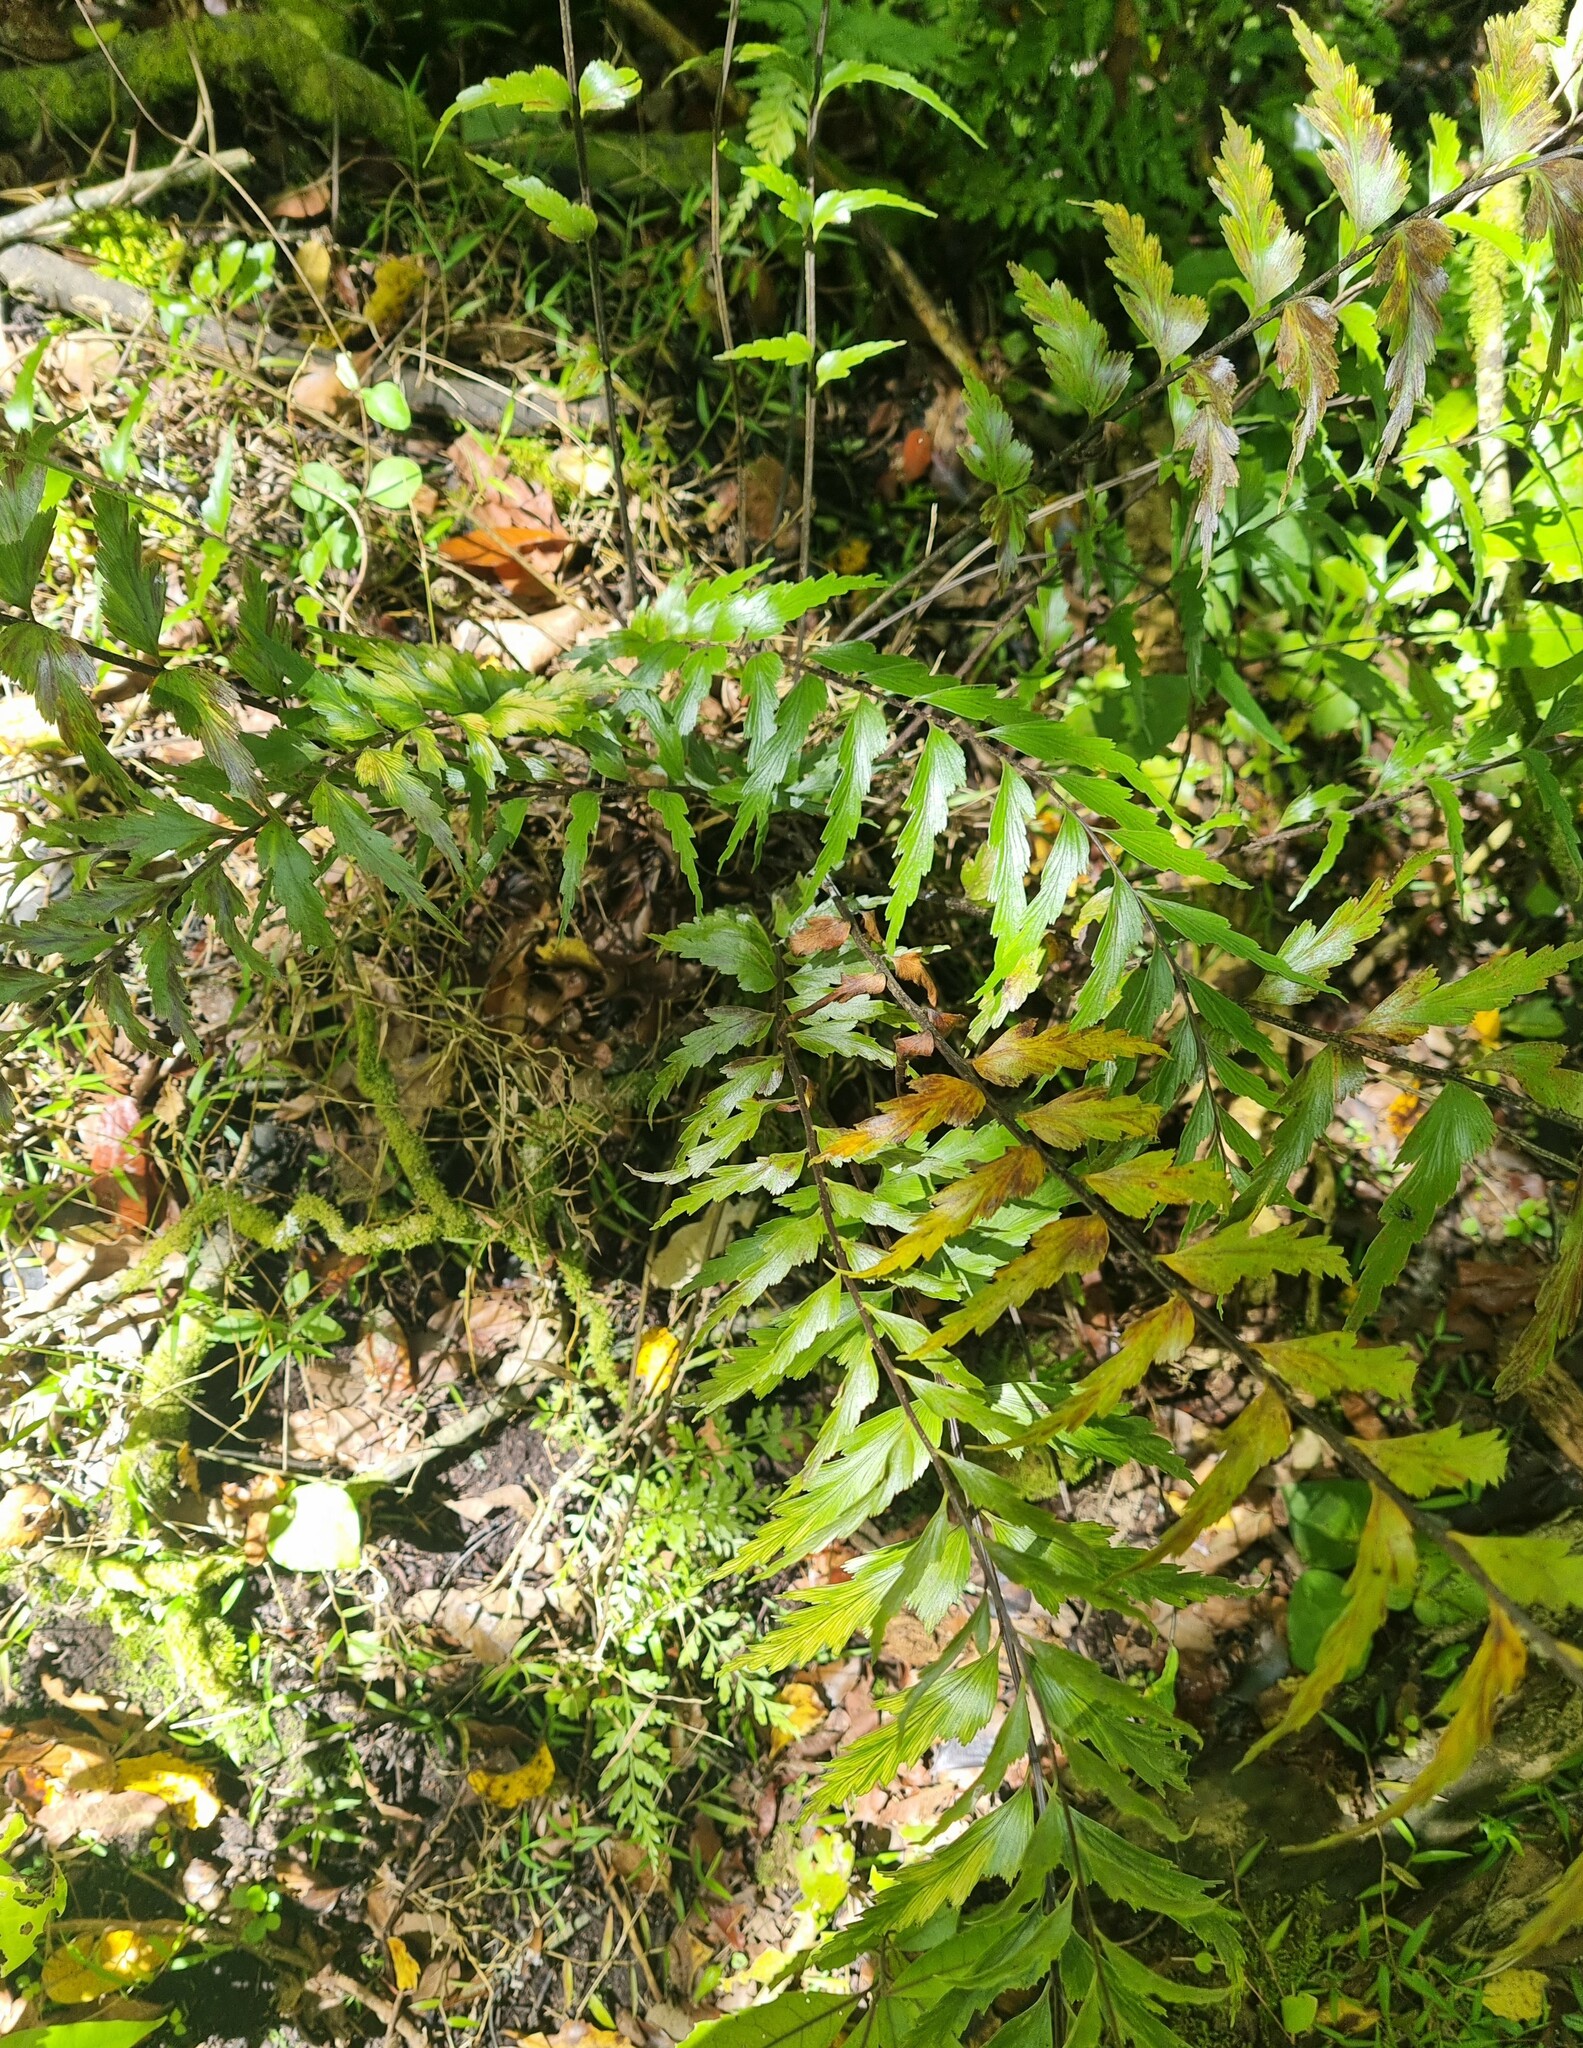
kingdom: Plantae
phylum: Tracheophyta
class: Polypodiopsida
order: Polypodiales
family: Aspleniaceae
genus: Asplenium
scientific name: Asplenium polyodon
